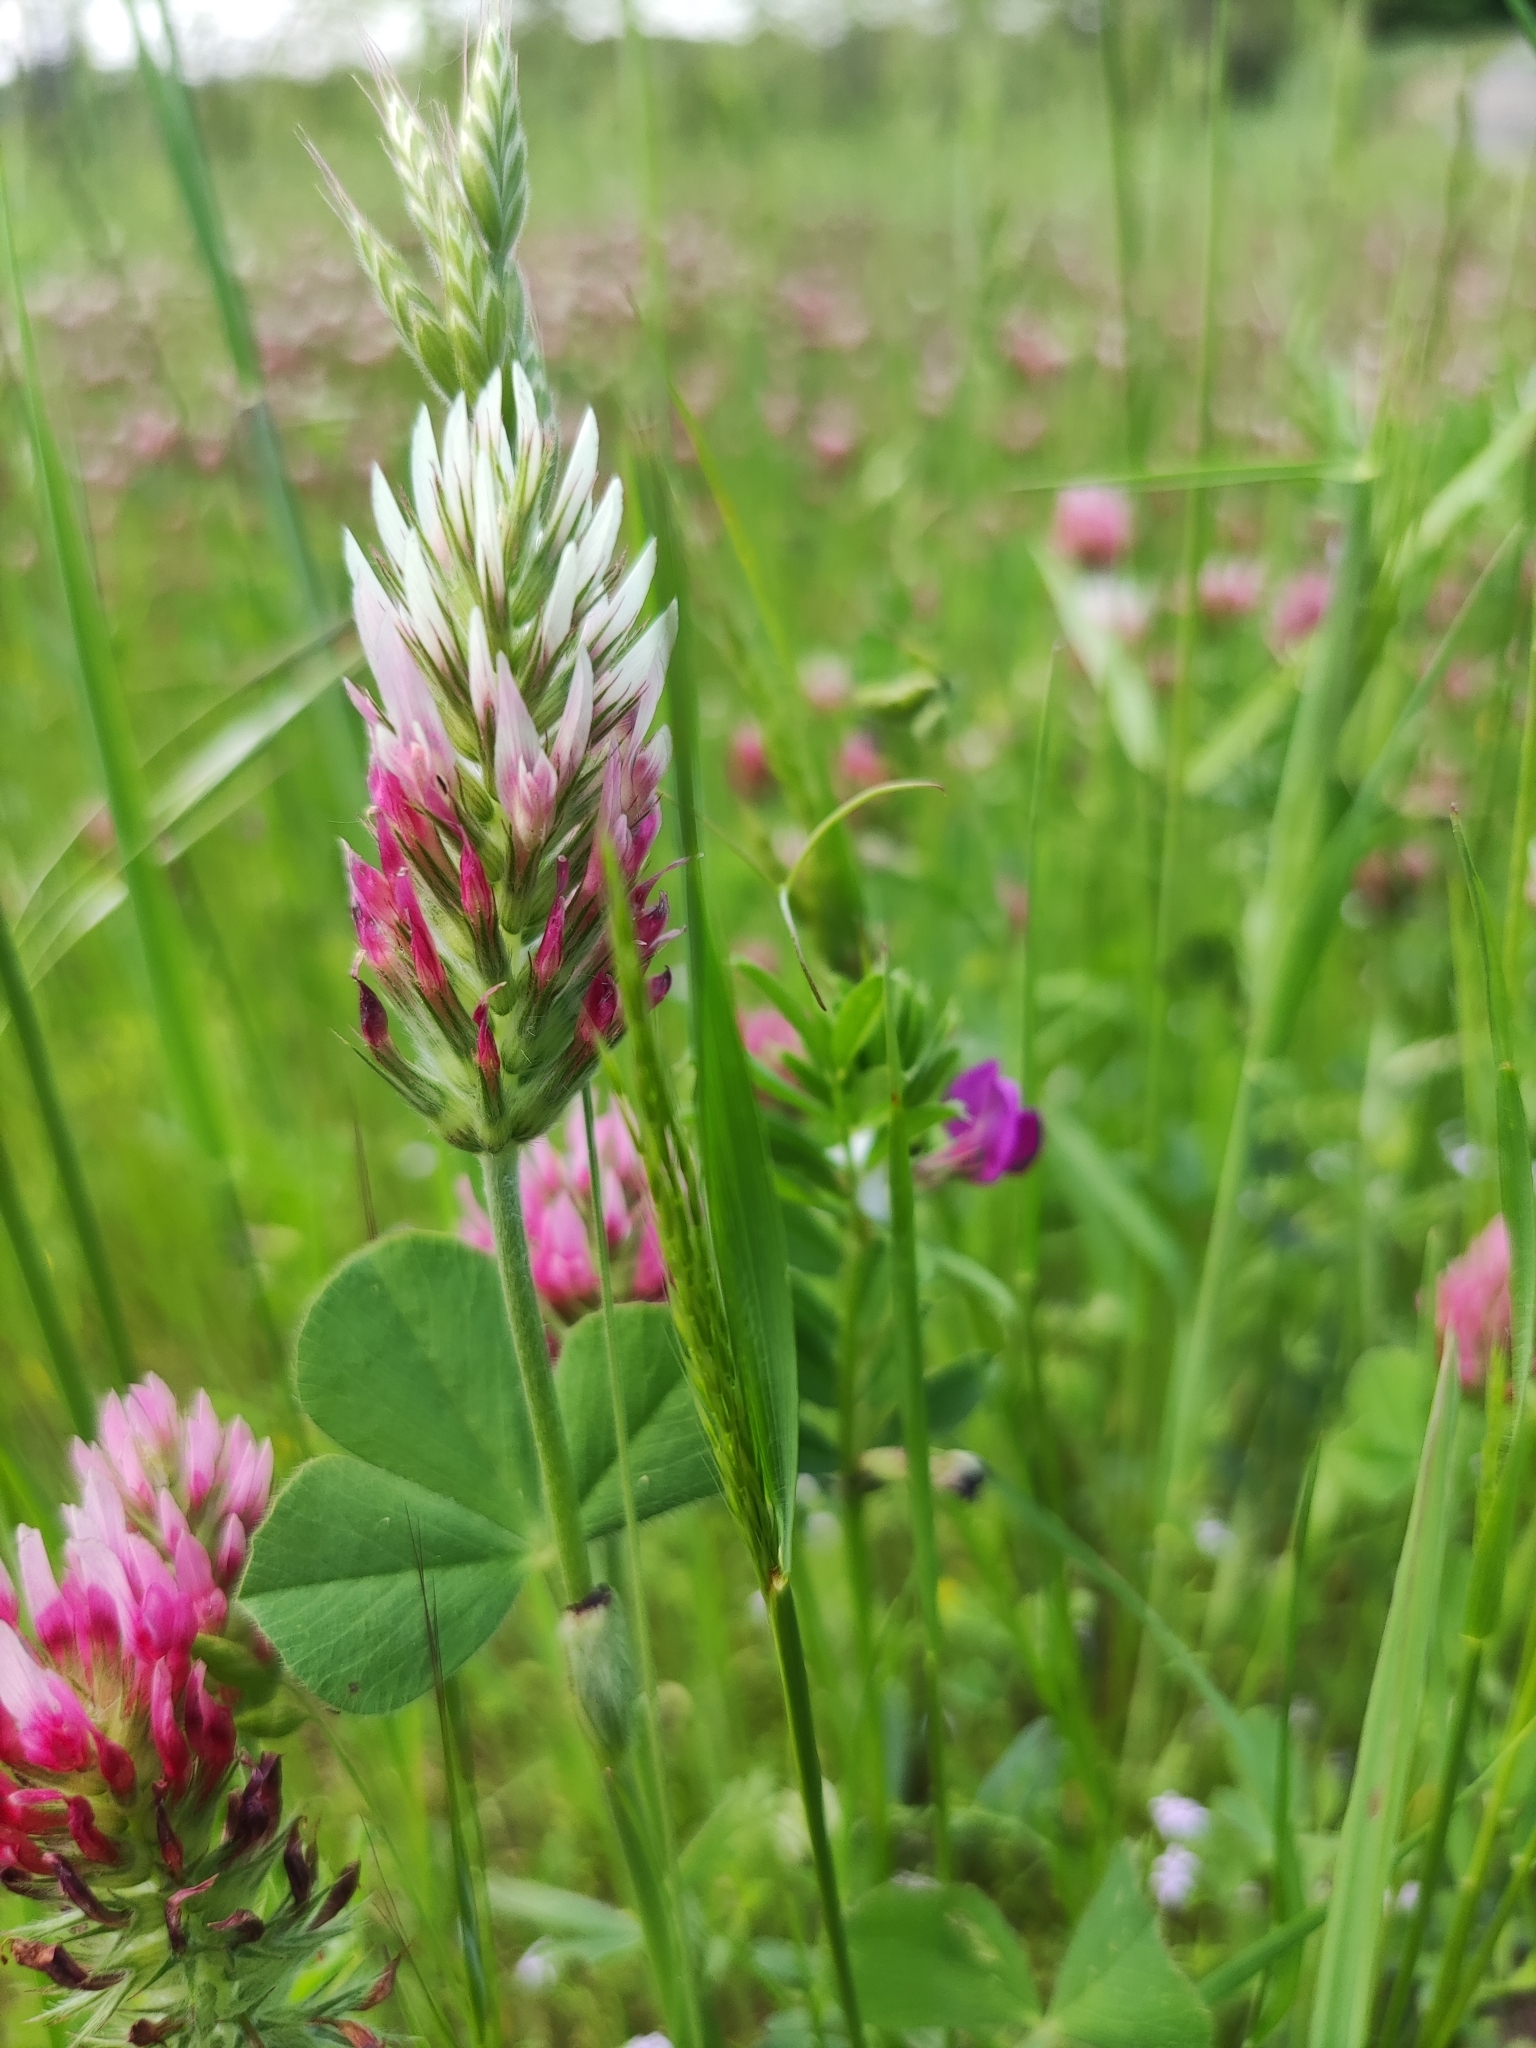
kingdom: Plantae
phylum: Tracheophyta
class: Magnoliopsida
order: Fabales
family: Fabaceae
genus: Trifolium
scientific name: Trifolium incarnatum
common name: Crimson clover
